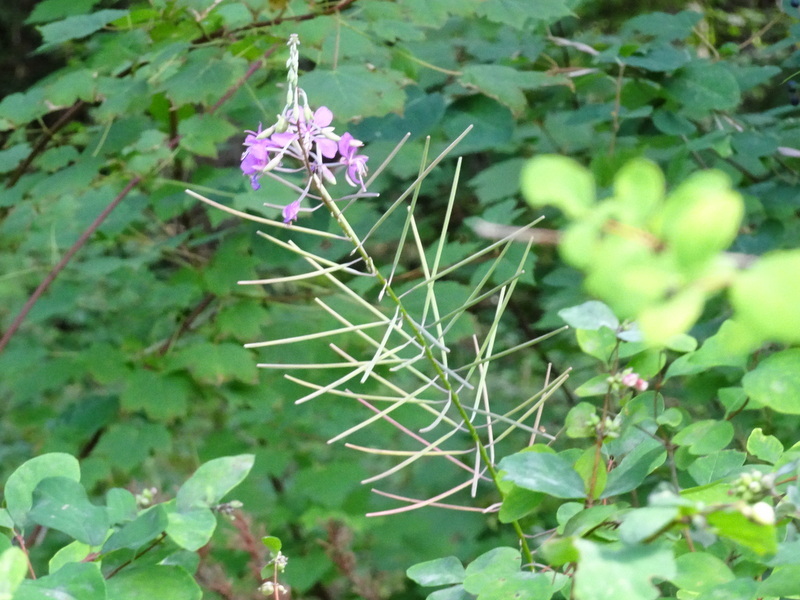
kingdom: Plantae
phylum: Tracheophyta
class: Magnoliopsida
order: Myrtales
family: Onagraceae
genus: Chamaenerion
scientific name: Chamaenerion angustifolium
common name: Fireweed
